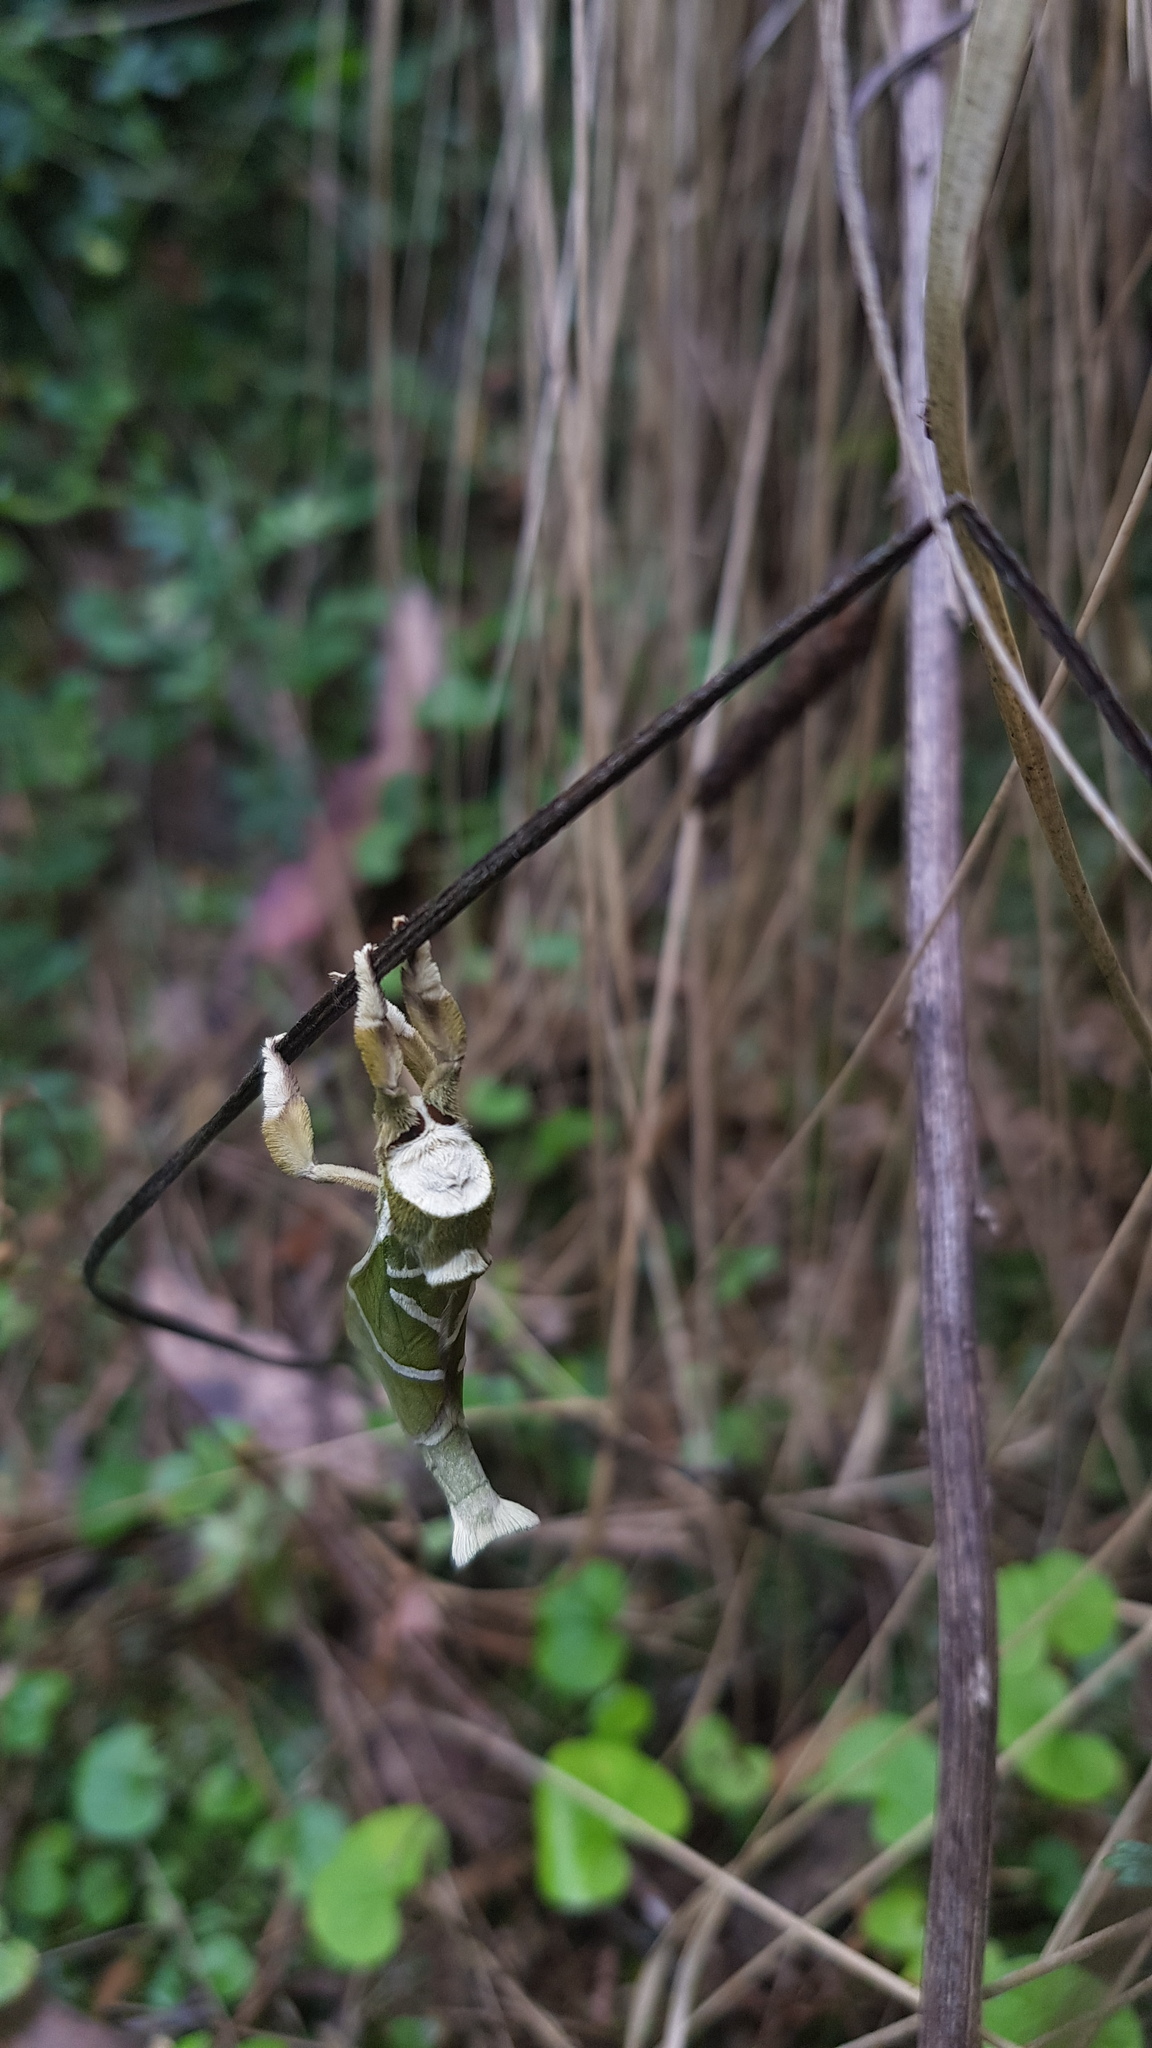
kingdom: Animalia
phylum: Arthropoda
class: Insecta
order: Lepidoptera
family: Hepialidae
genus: Aenetus
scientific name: Aenetus ligniveren
